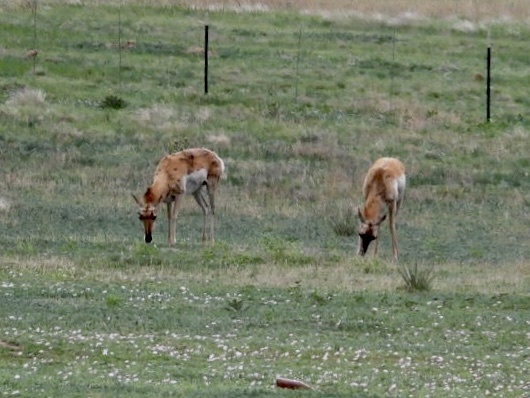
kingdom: Animalia
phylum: Chordata
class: Mammalia
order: Artiodactyla
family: Antilocapridae
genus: Antilocapra
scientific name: Antilocapra americana
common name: Pronghorn
